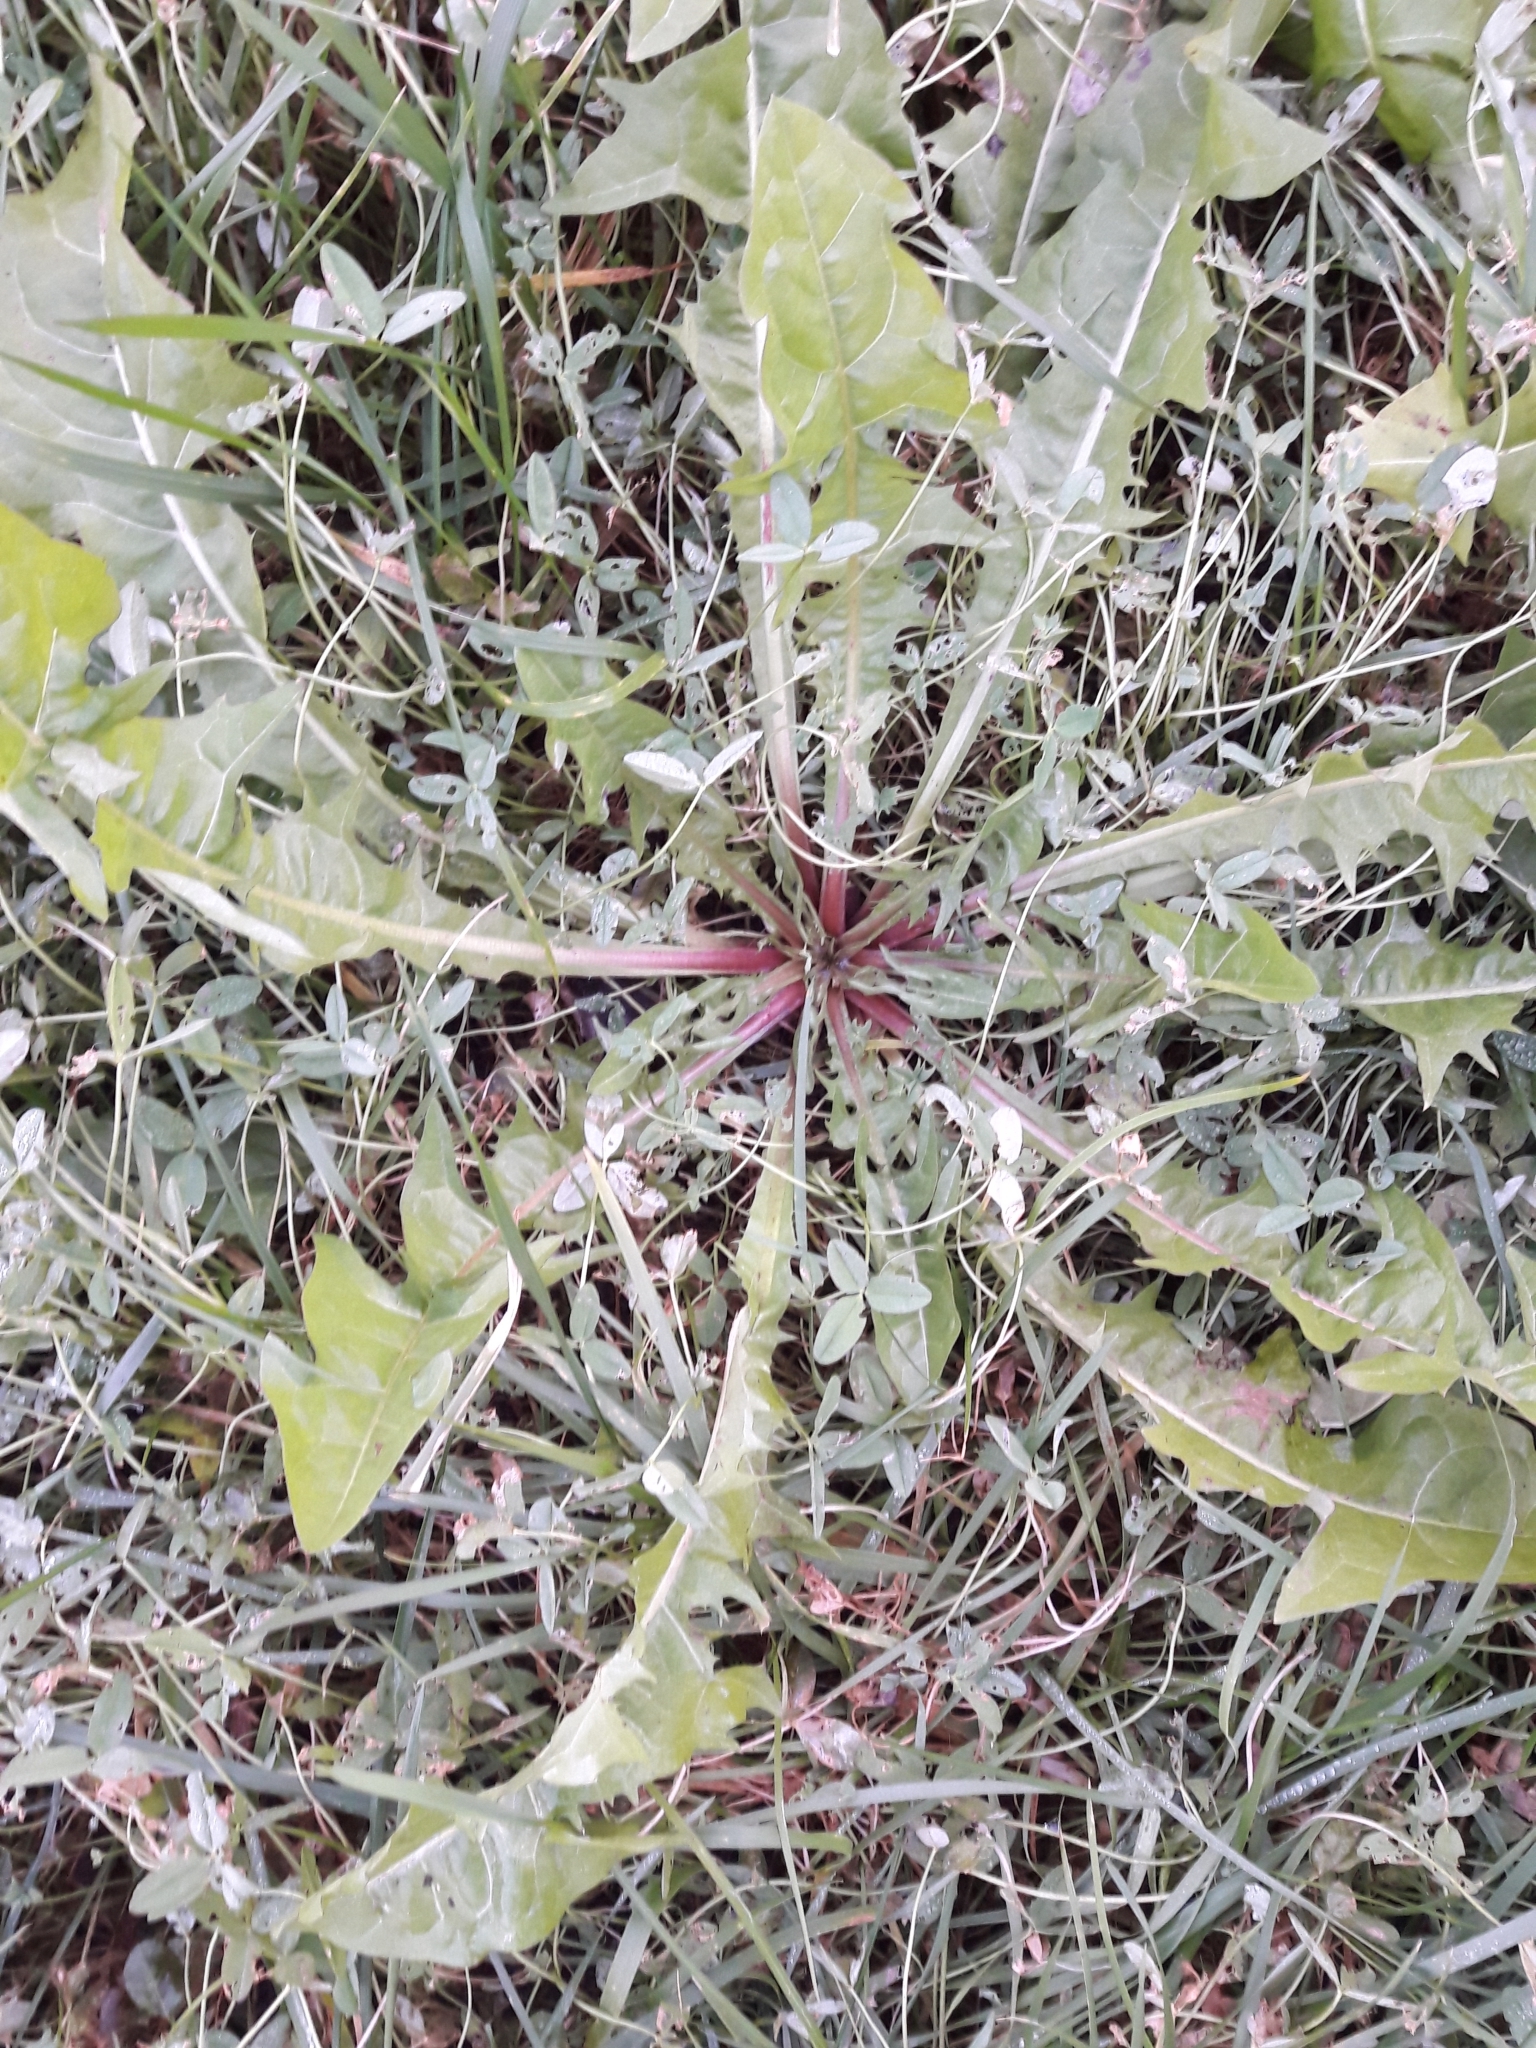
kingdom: Plantae
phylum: Tracheophyta
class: Magnoliopsida
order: Asterales
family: Asteraceae
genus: Taraxacum
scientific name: Taraxacum officinale
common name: Common dandelion
